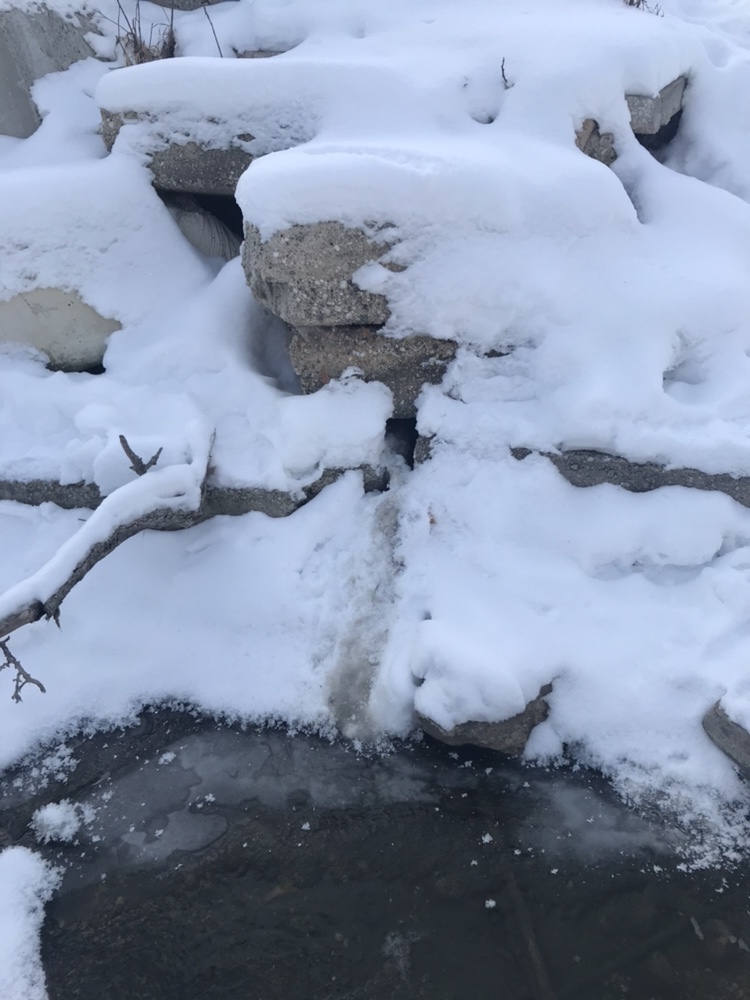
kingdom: Animalia
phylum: Chordata
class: Mammalia
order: Carnivora
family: Mustelidae
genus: Mustela
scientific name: Mustela
